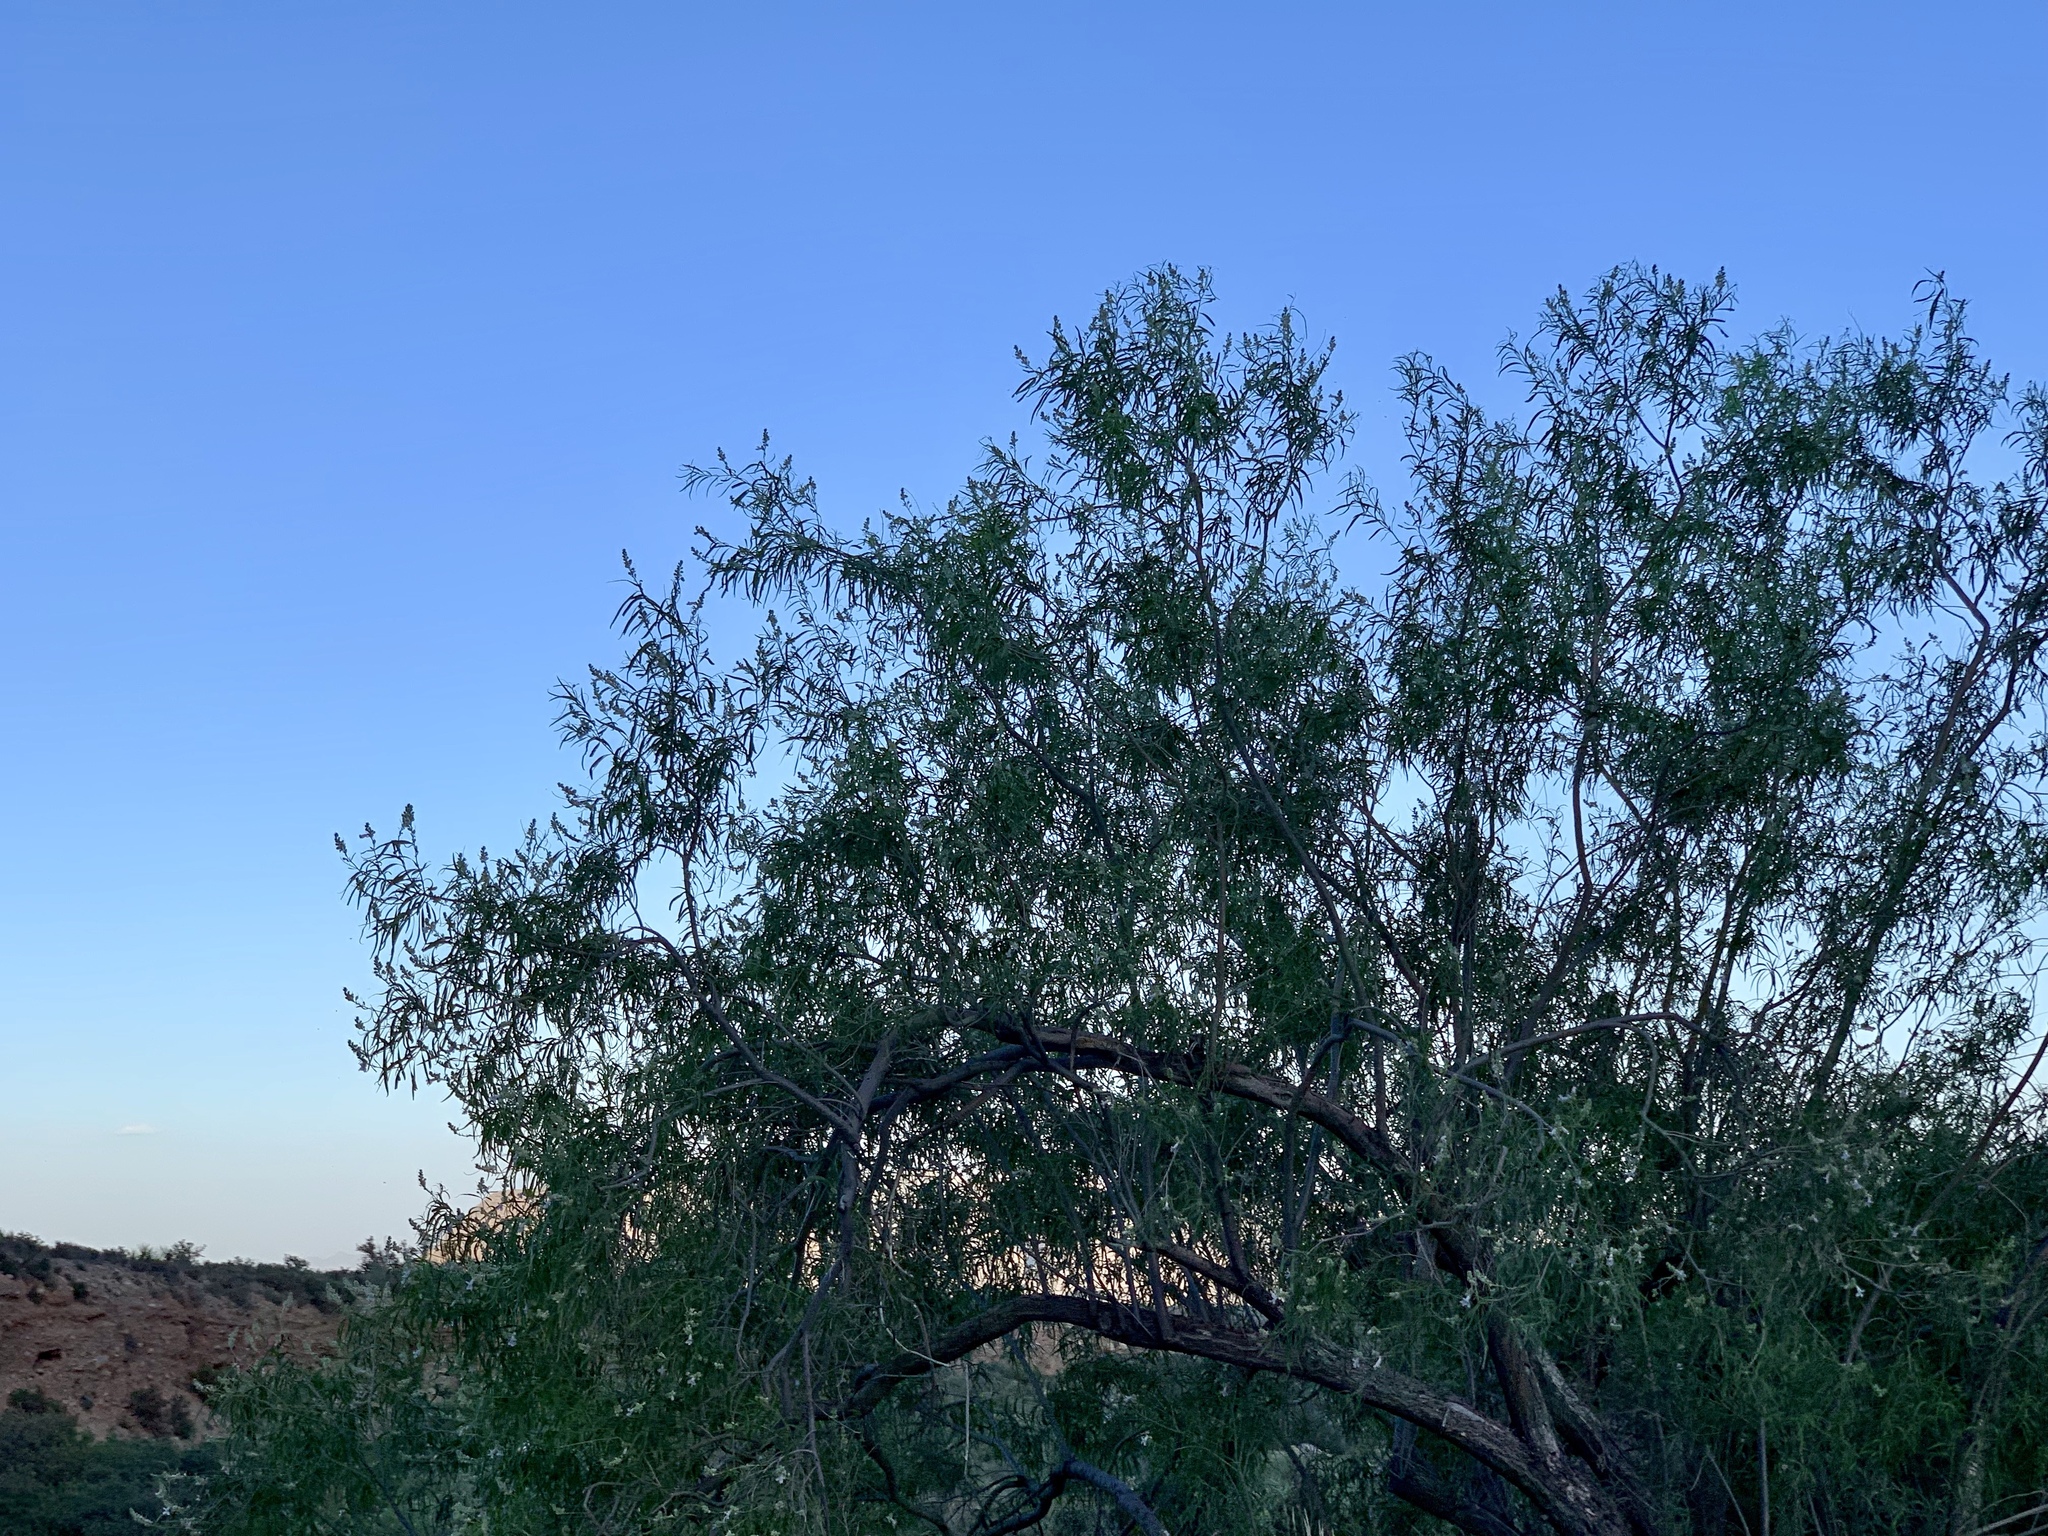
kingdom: Plantae
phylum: Tracheophyta
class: Magnoliopsida
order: Lamiales
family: Bignoniaceae
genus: Chilopsis
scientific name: Chilopsis linearis
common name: Desert-willow
